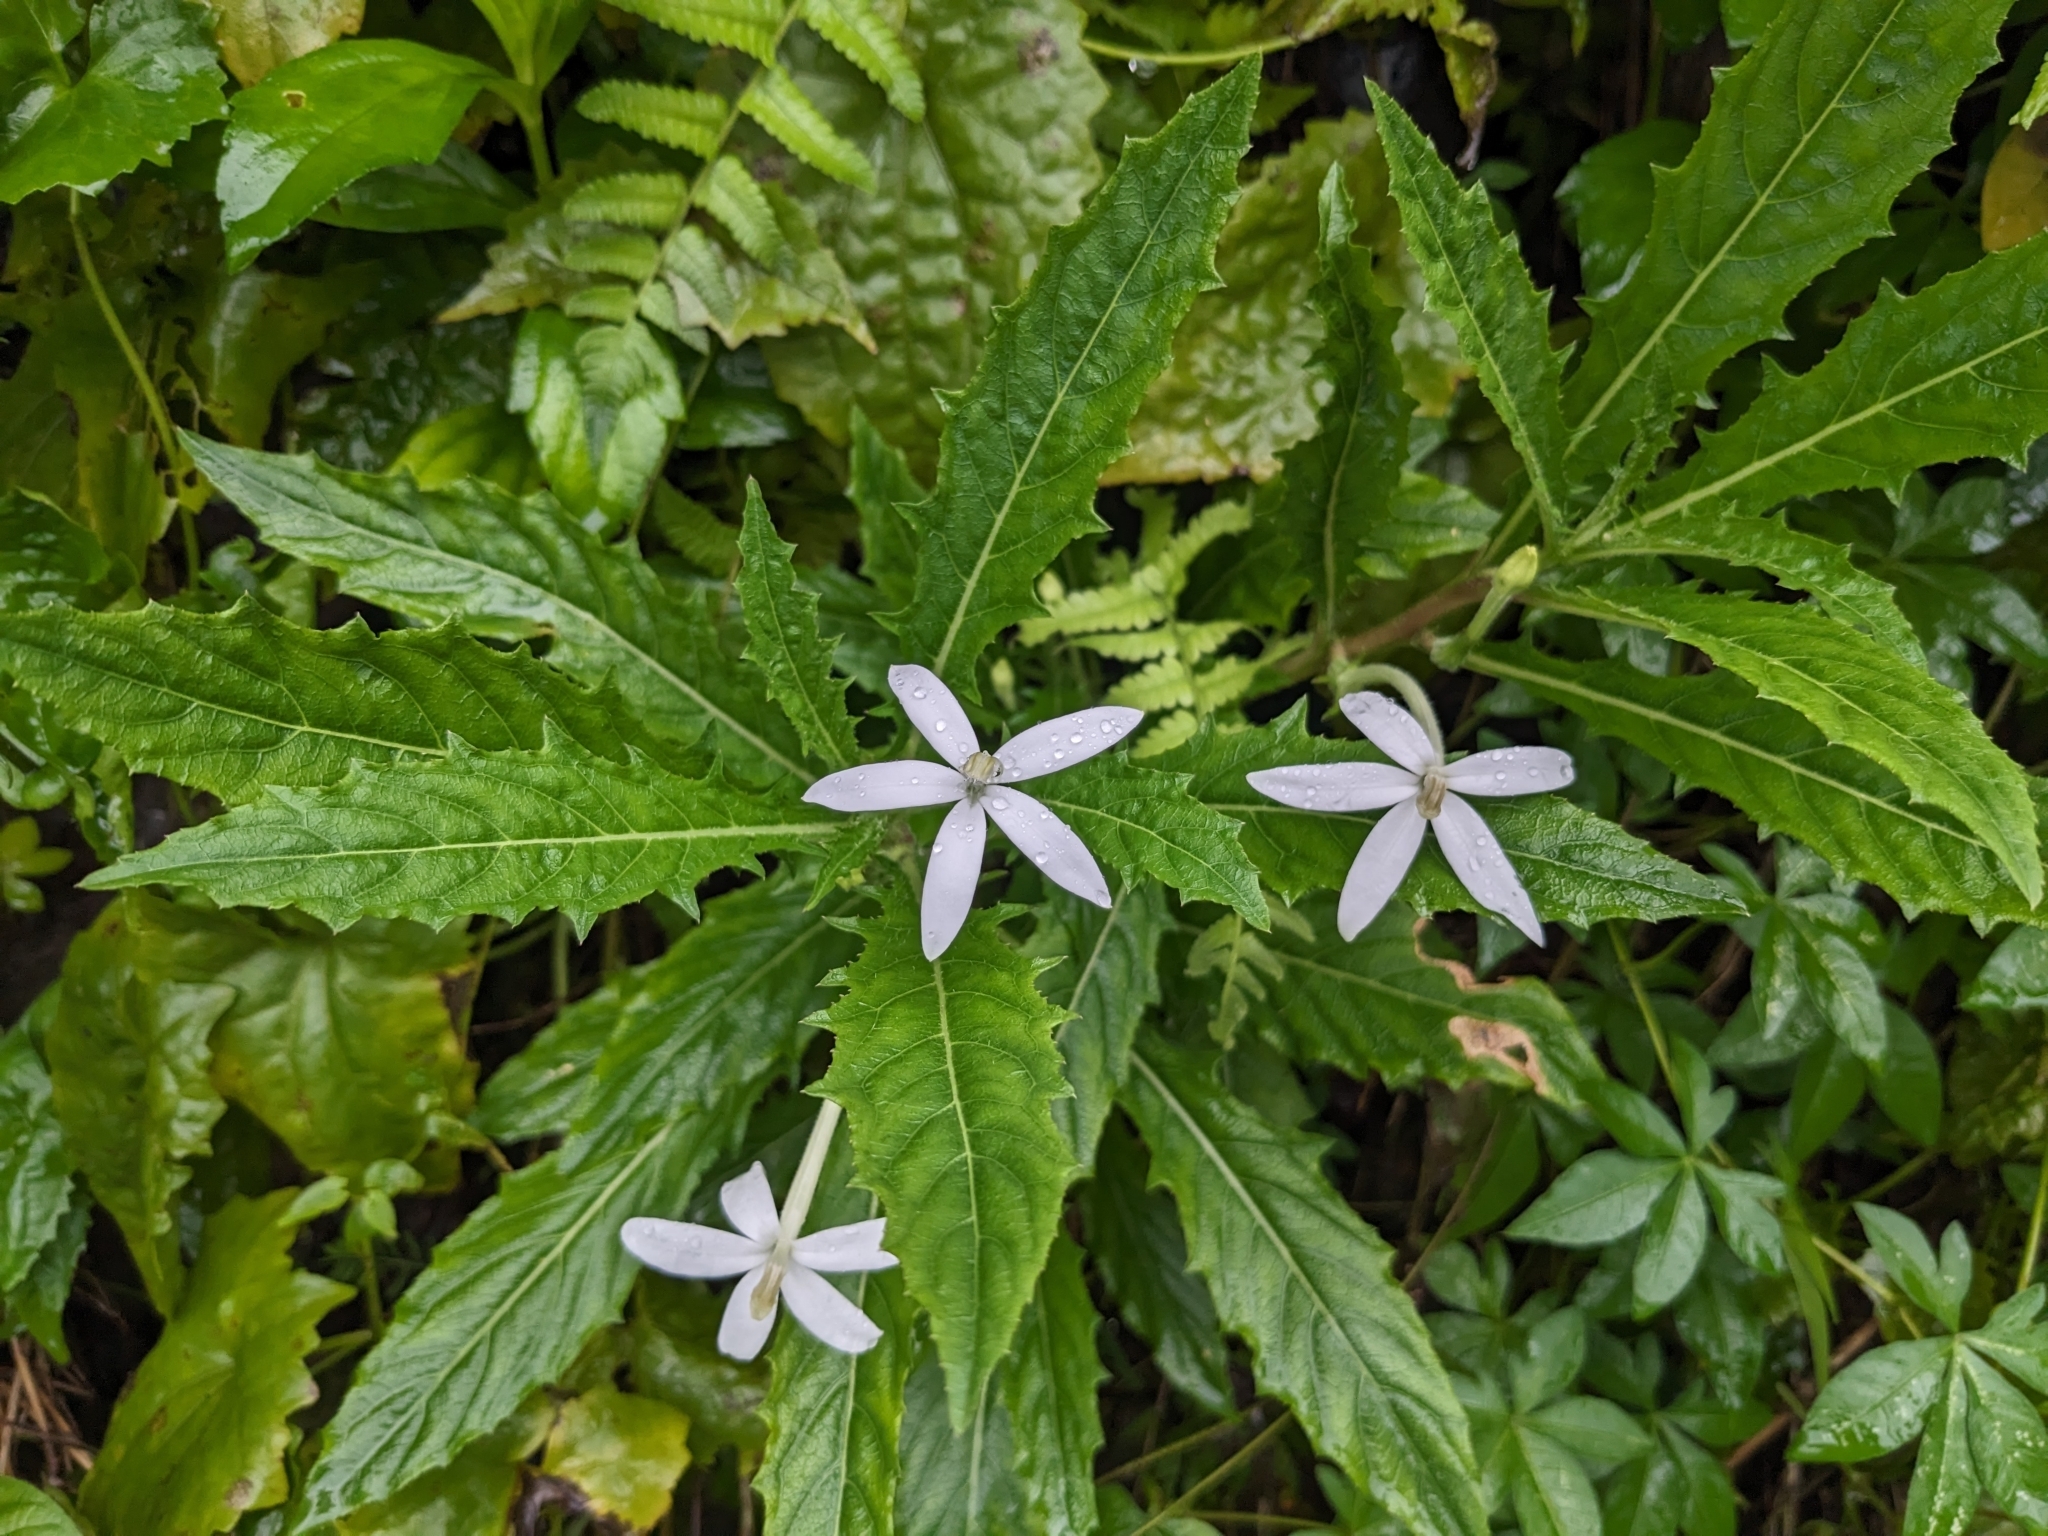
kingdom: Plantae
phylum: Tracheophyta
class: Magnoliopsida
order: Asterales
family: Campanulaceae
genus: Hippobroma
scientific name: Hippobroma longiflora
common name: Madamfate
